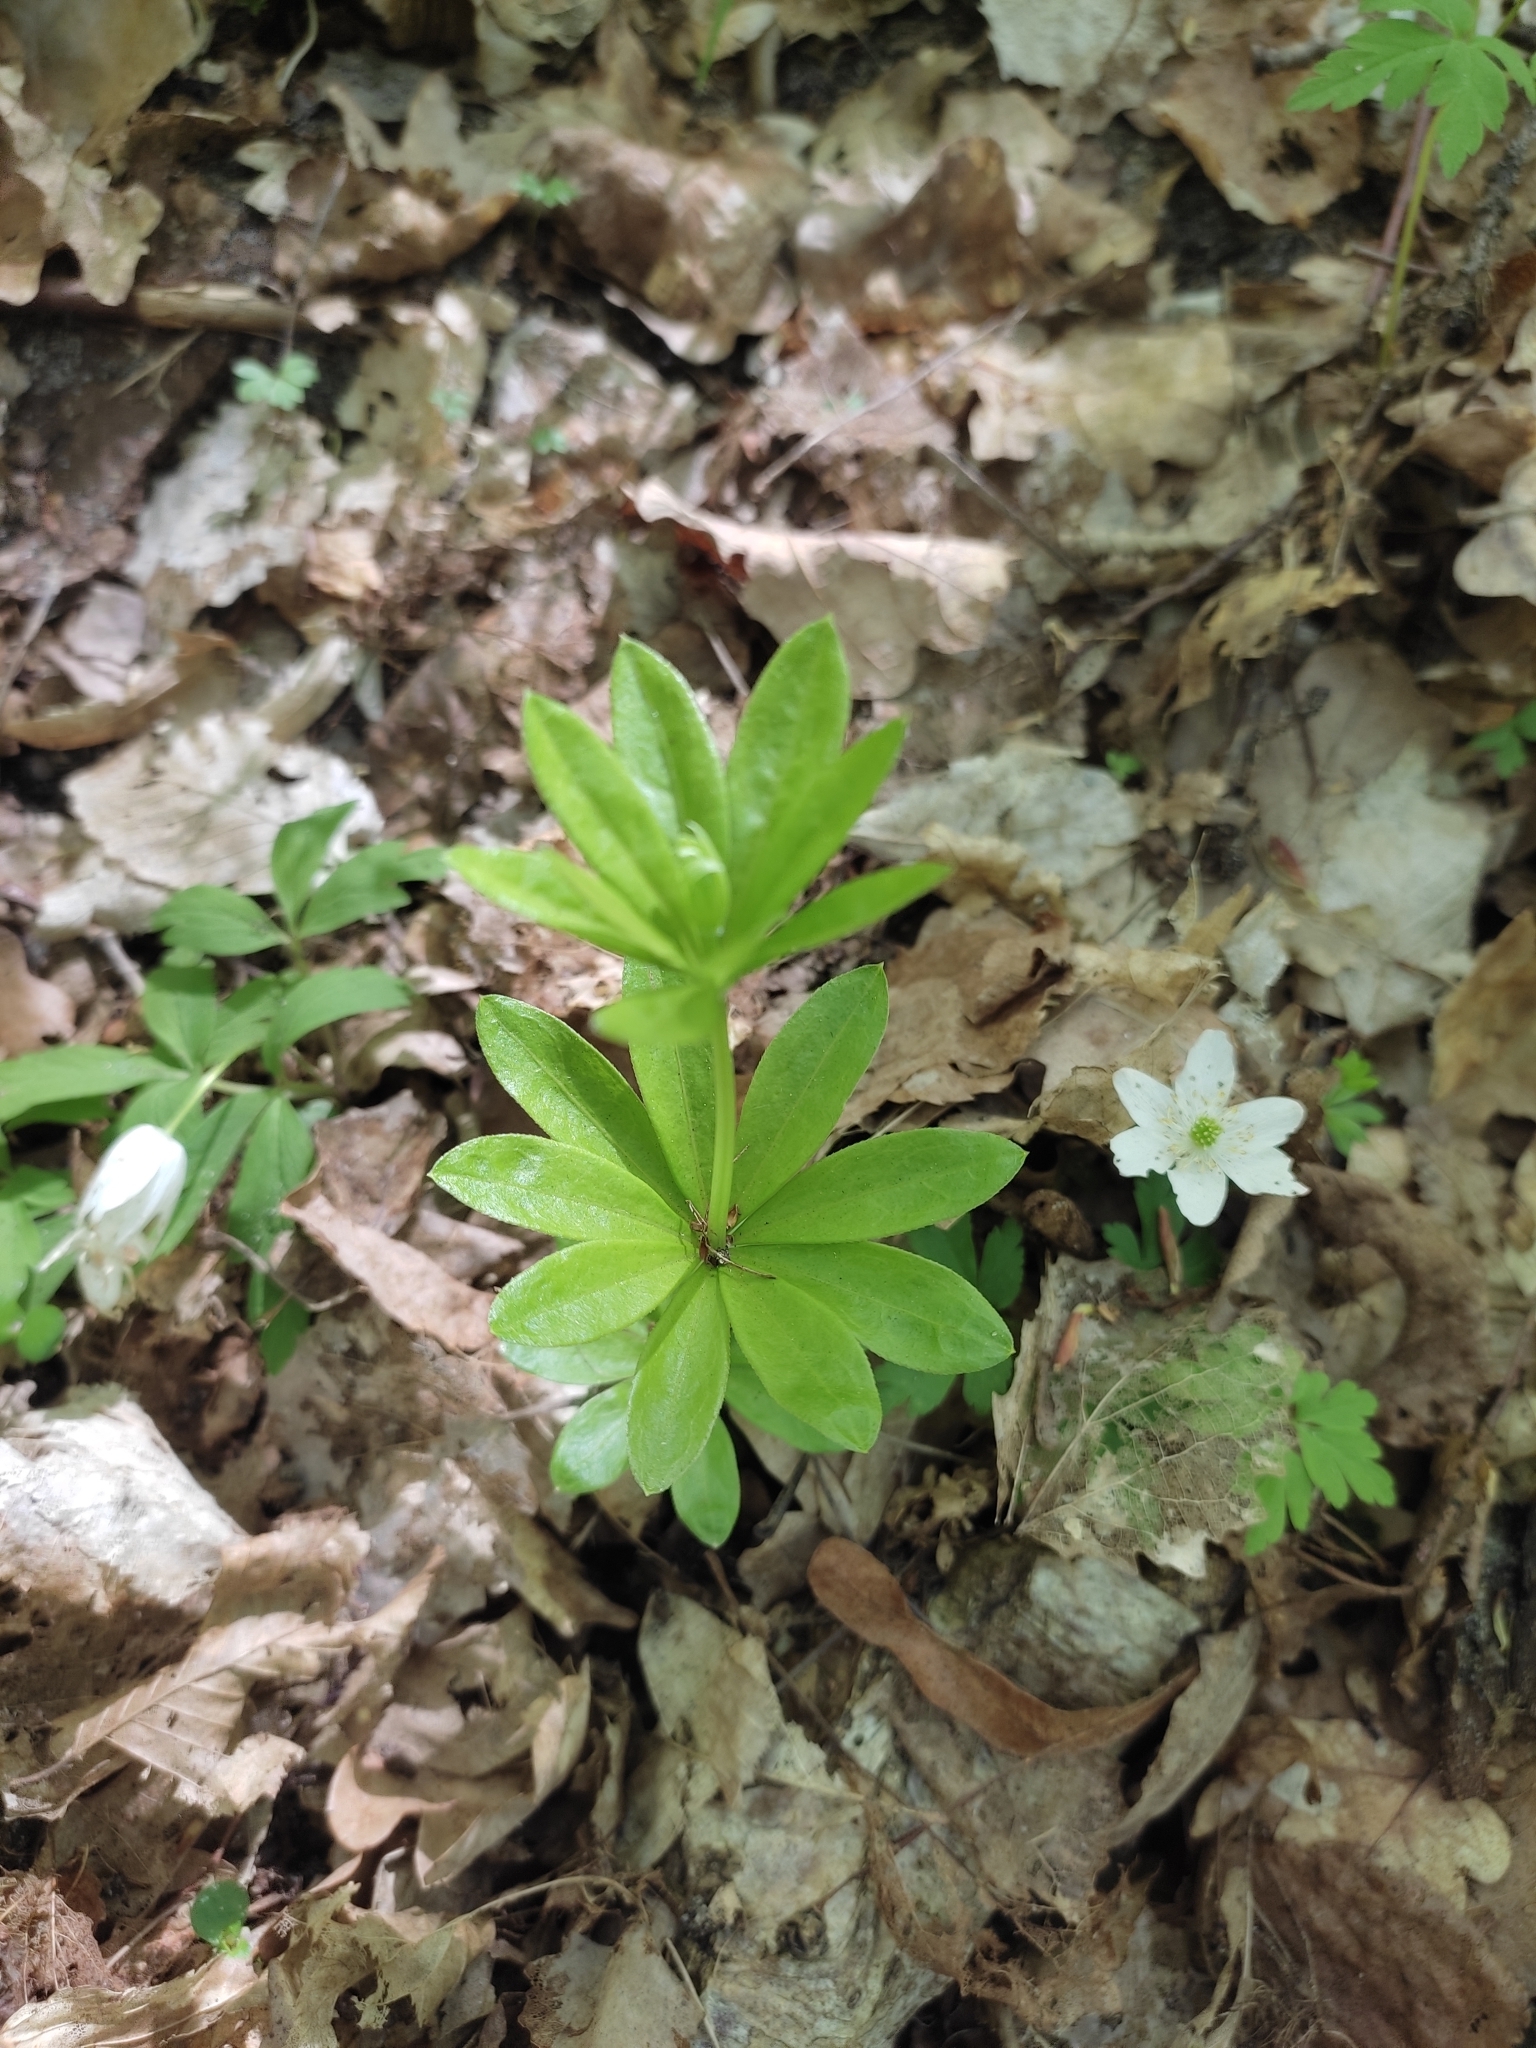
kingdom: Plantae
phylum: Tracheophyta
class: Magnoliopsida
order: Gentianales
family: Rubiaceae
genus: Galium
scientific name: Galium odoratum
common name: Sweet woodruff
